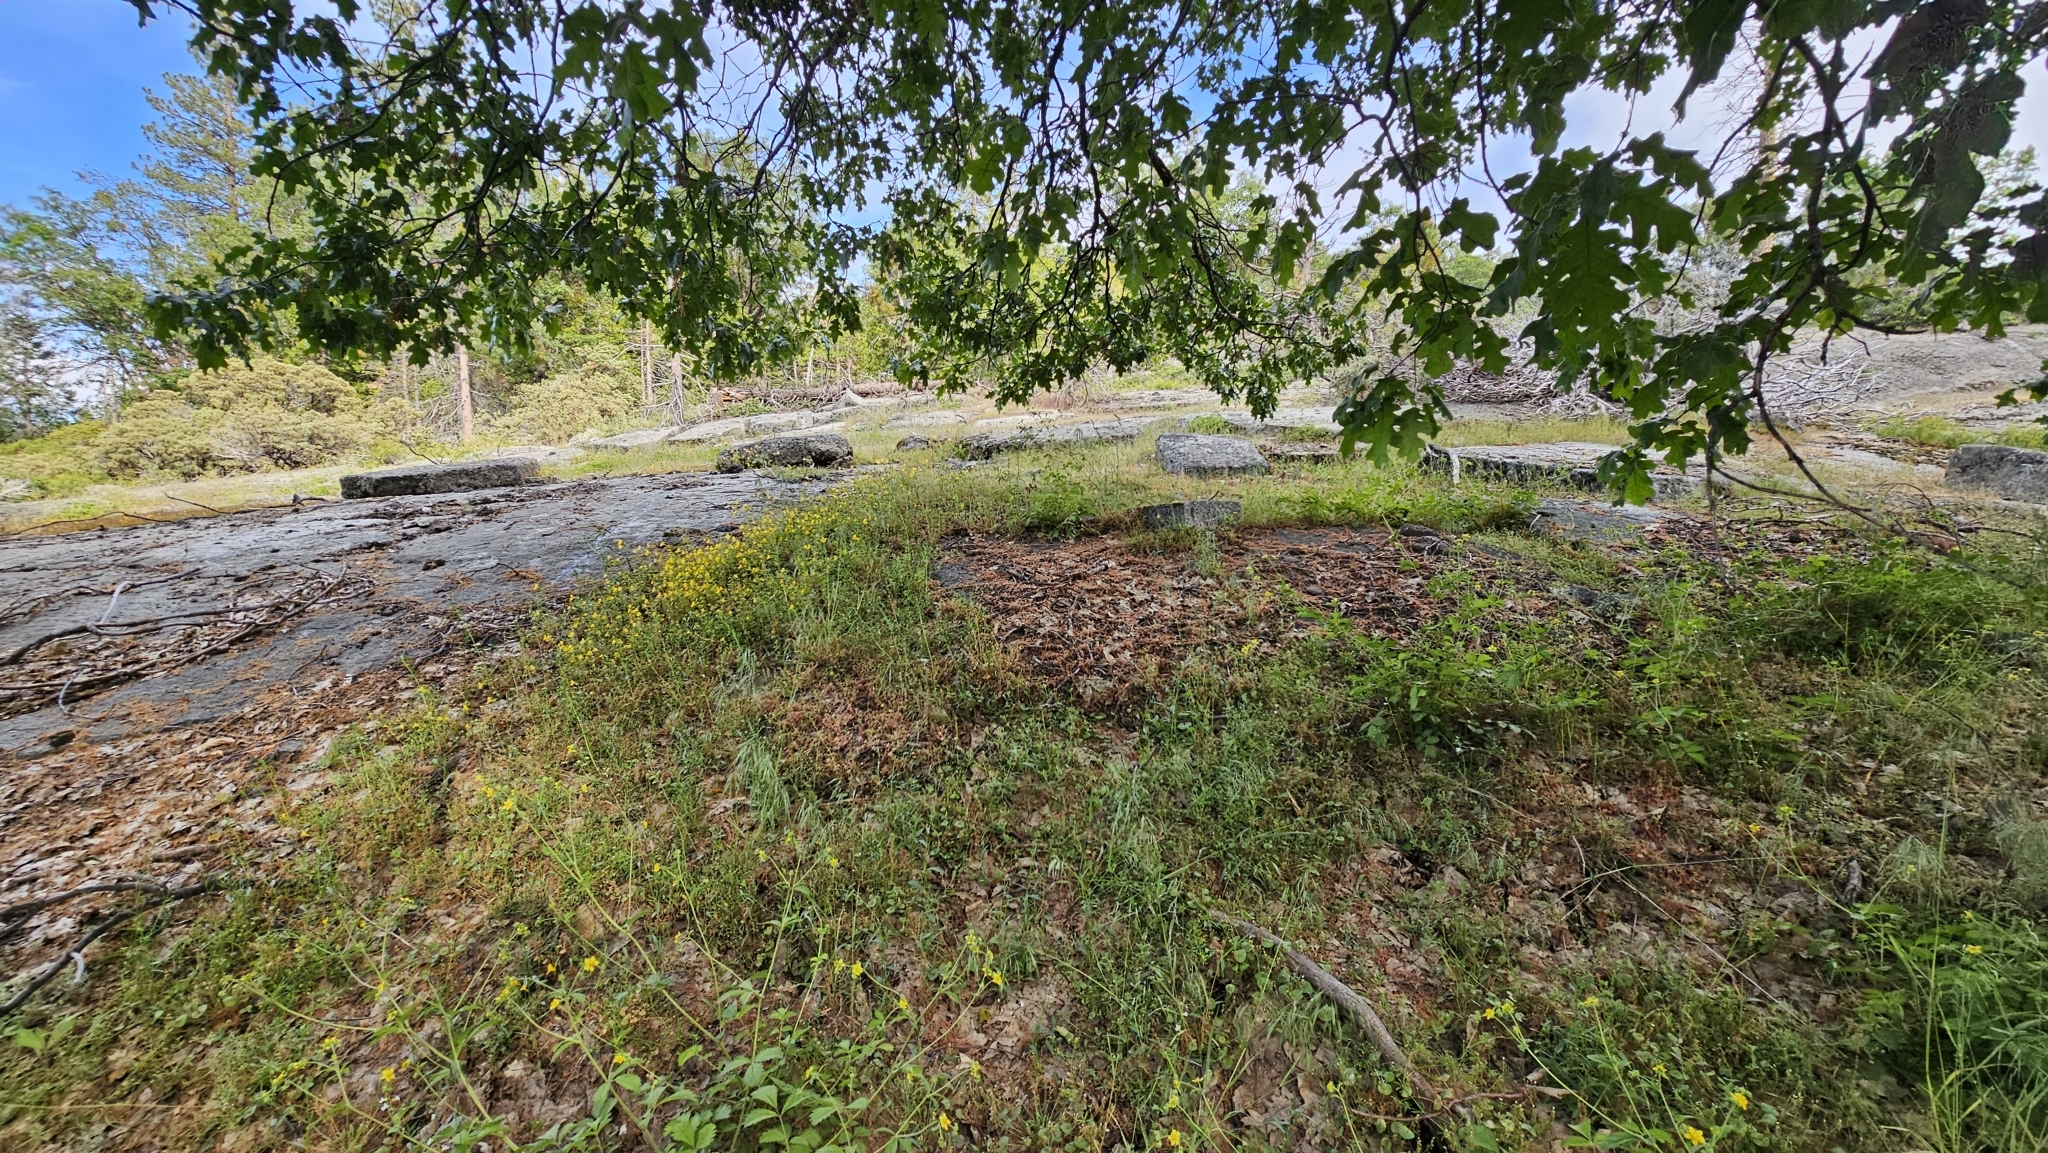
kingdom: Plantae
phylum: Tracheophyta
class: Liliopsida
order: Liliales
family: Liliaceae
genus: Fritillaria
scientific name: Fritillaria micrantha
